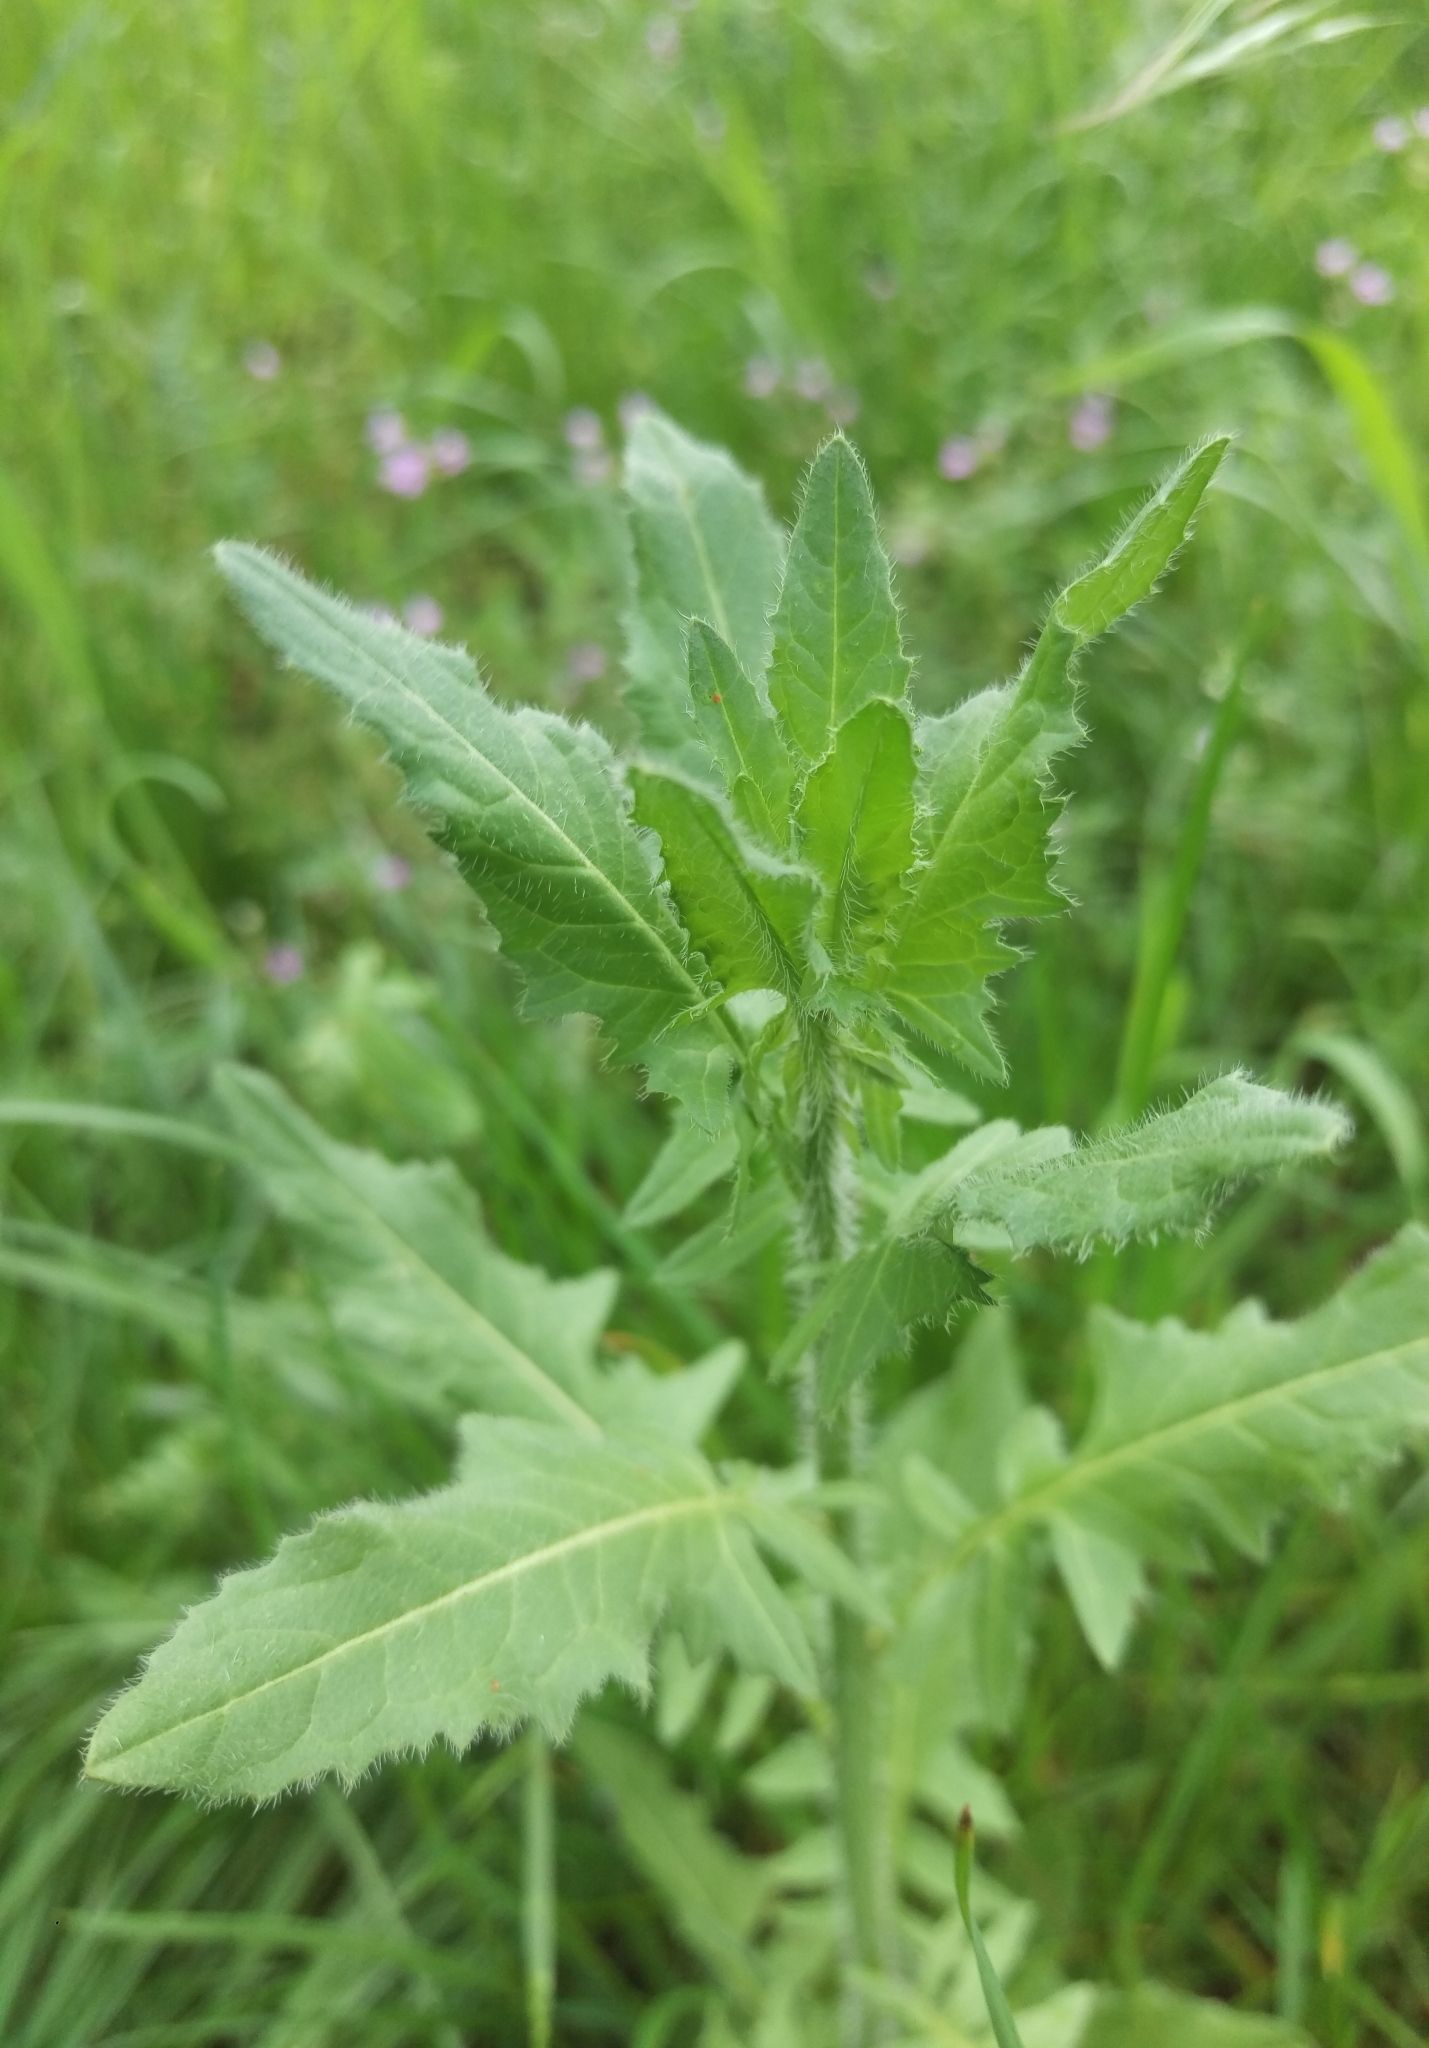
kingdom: Plantae
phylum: Tracheophyta
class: Magnoliopsida
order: Brassicales
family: Brassicaceae
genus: Sisymbrium
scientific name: Sisymbrium loeselii
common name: False london-rocket
